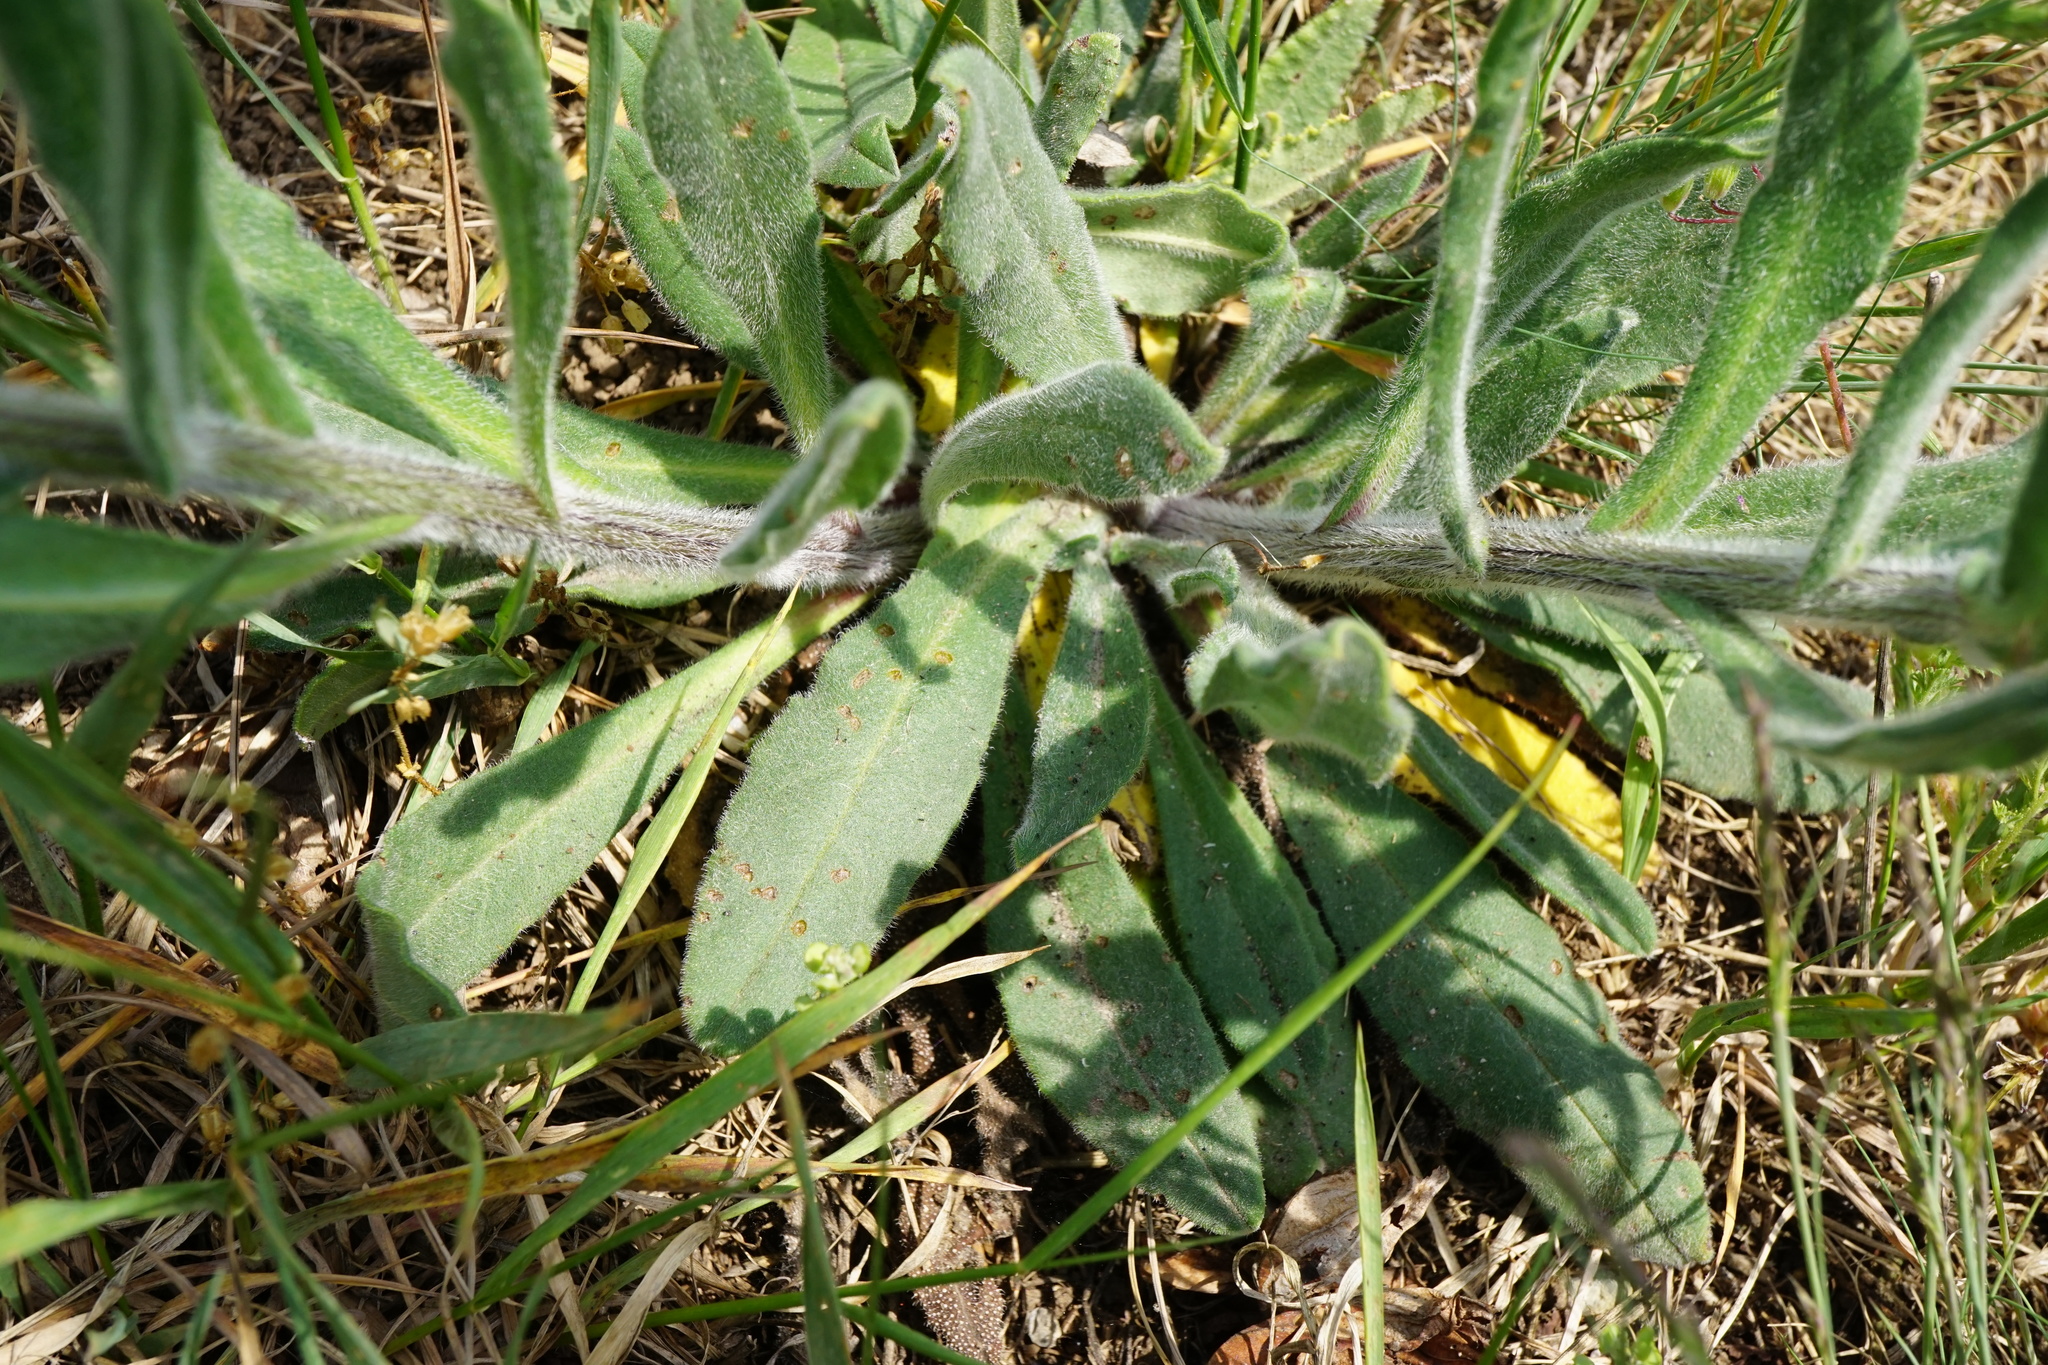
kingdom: Plantae
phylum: Tracheophyta
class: Magnoliopsida
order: Boraginales
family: Boraginaceae
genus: Anchusa
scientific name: Anchusa officinalis
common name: Alkanet
